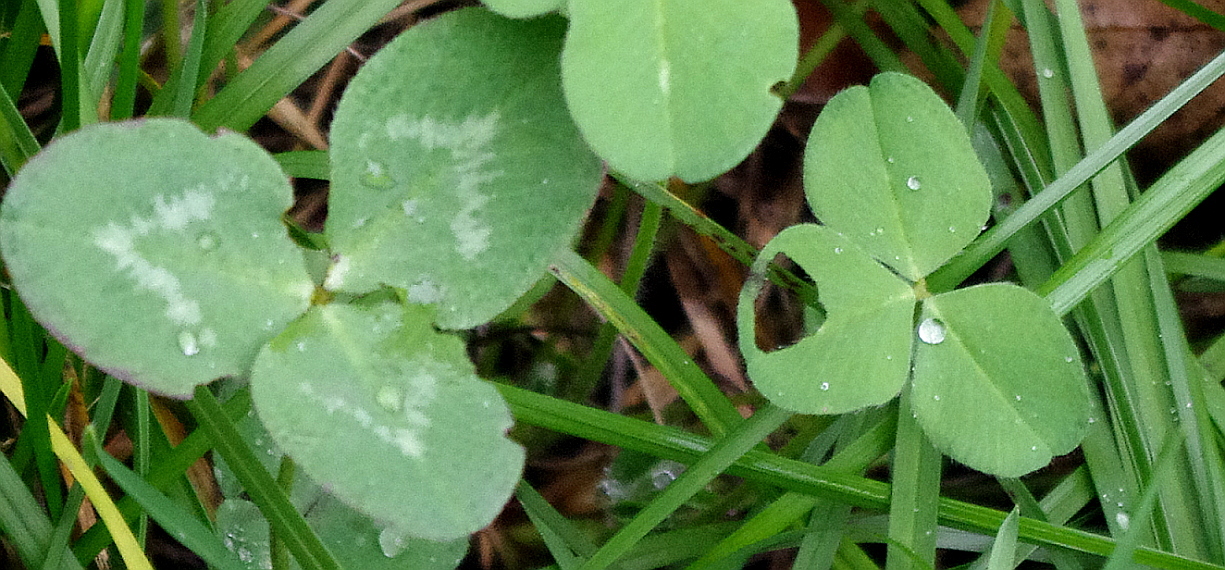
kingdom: Plantae
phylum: Tracheophyta
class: Magnoliopsida
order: Fabales
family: Fabaceae
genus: Trifolium
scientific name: Trifolium repens
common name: White clover
